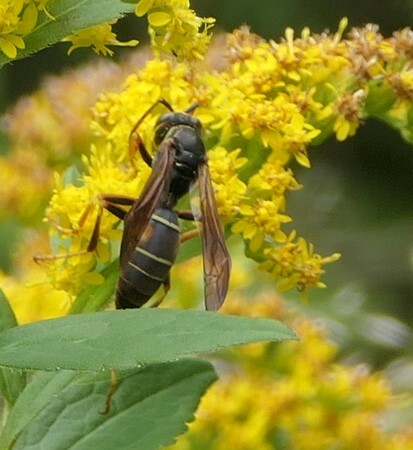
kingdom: Animalia
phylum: Arthropoda
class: Insecta
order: Hymenoptera
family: Eumenidae
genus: Polistes
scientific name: Polistes fuscatus
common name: Dark paper wasp
